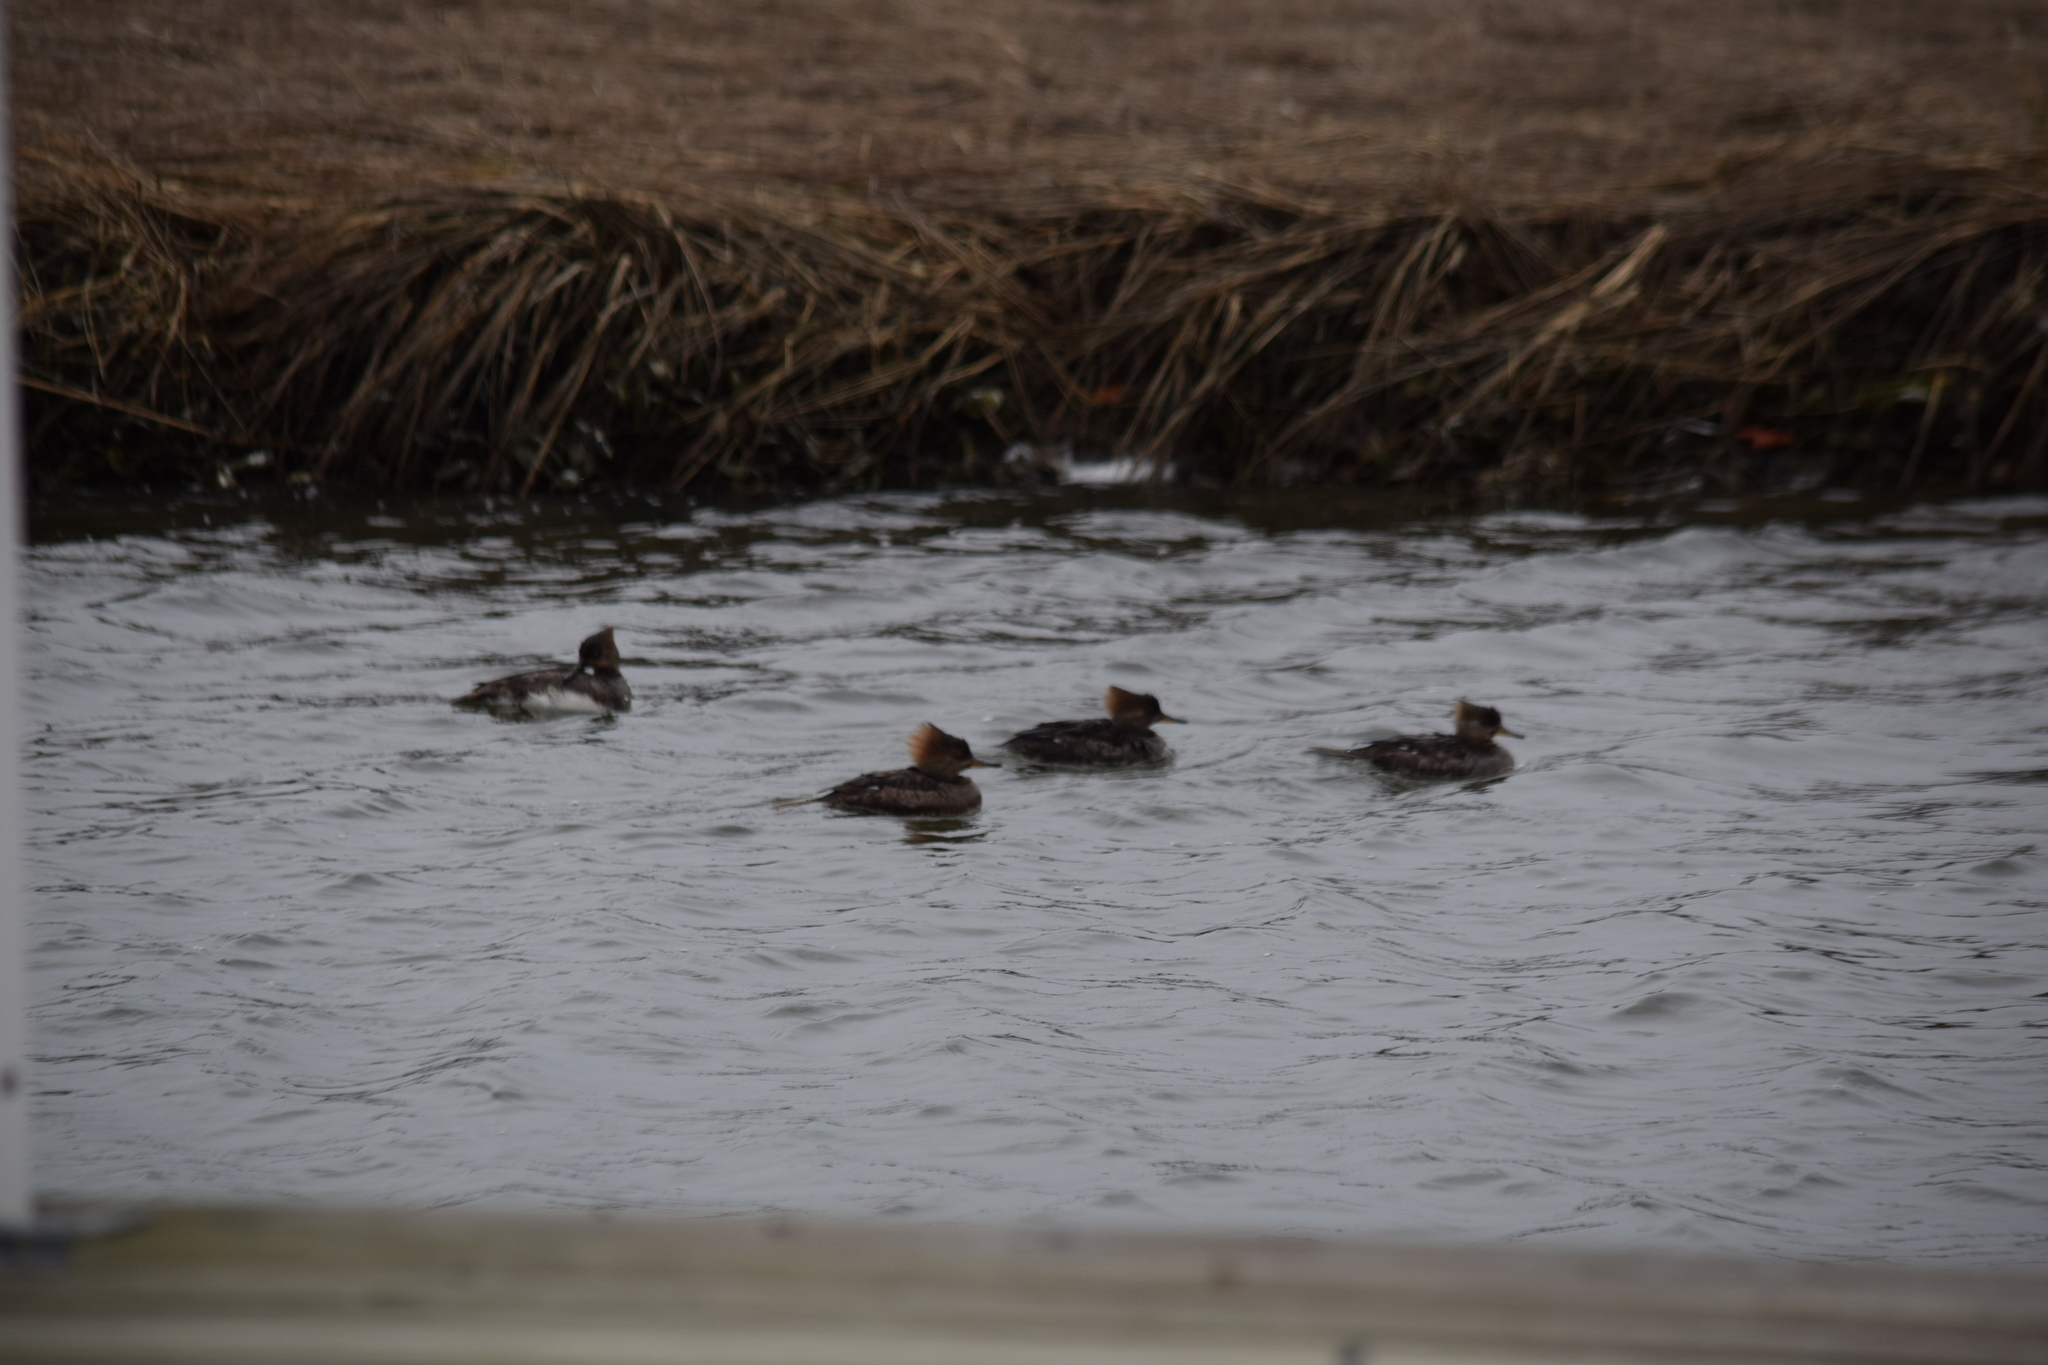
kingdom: Animalia
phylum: Chordata
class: Aves
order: Anseriformes
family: Anatidae
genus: Mergus
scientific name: Mergus serrator
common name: Red-breasted merganser
